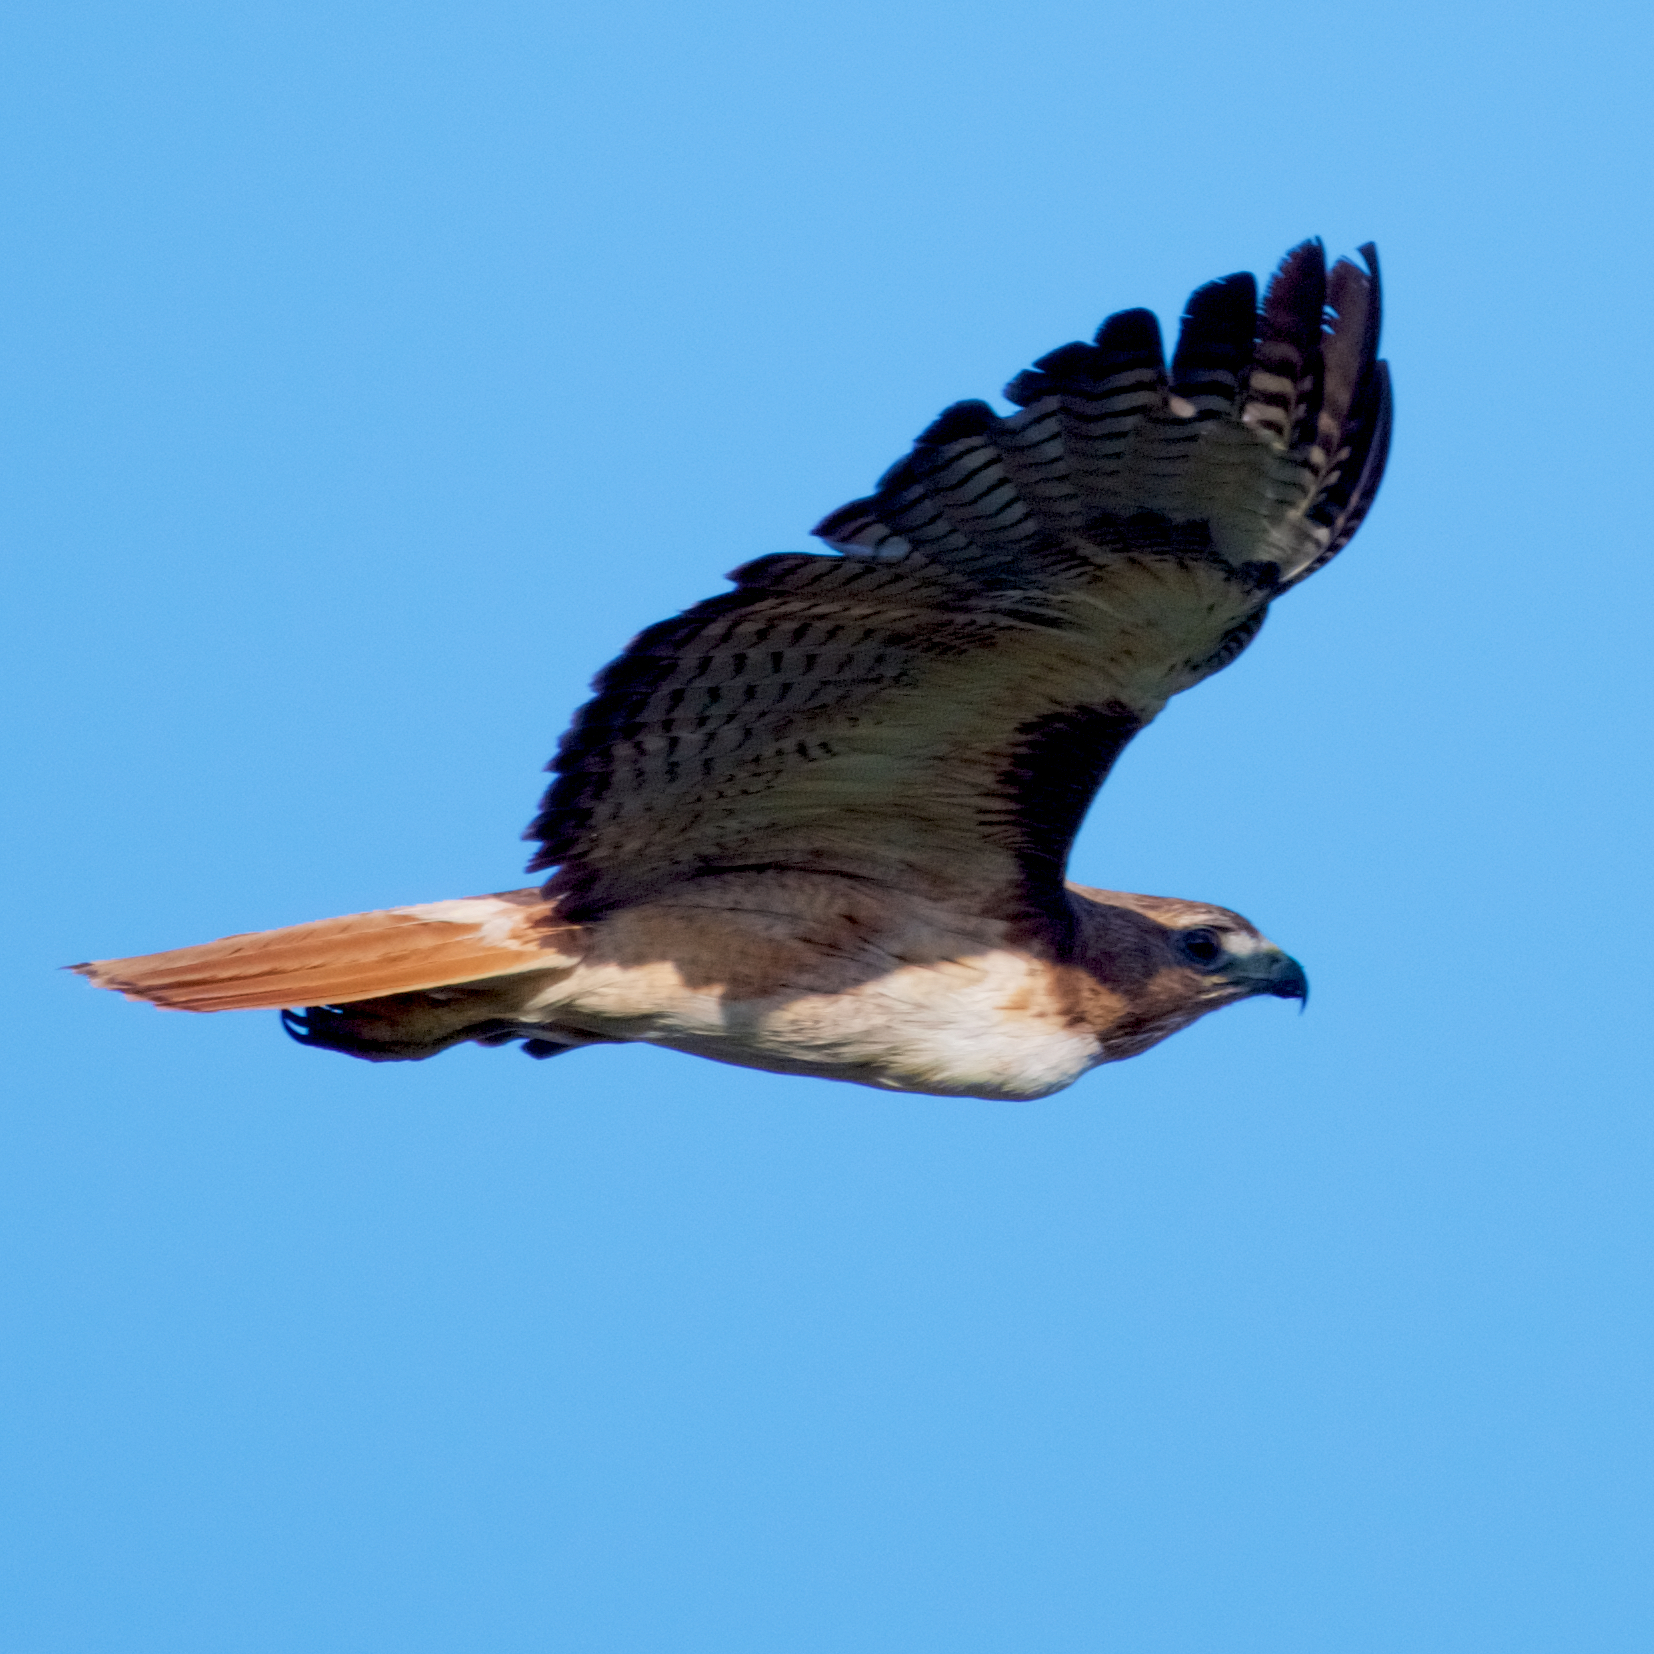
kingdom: Animalia
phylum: Chordata
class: Aves
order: Accipitriformes
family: Accipitridae
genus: Buteo
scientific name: Buteo jamaicensis
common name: Red-tailed hawk
